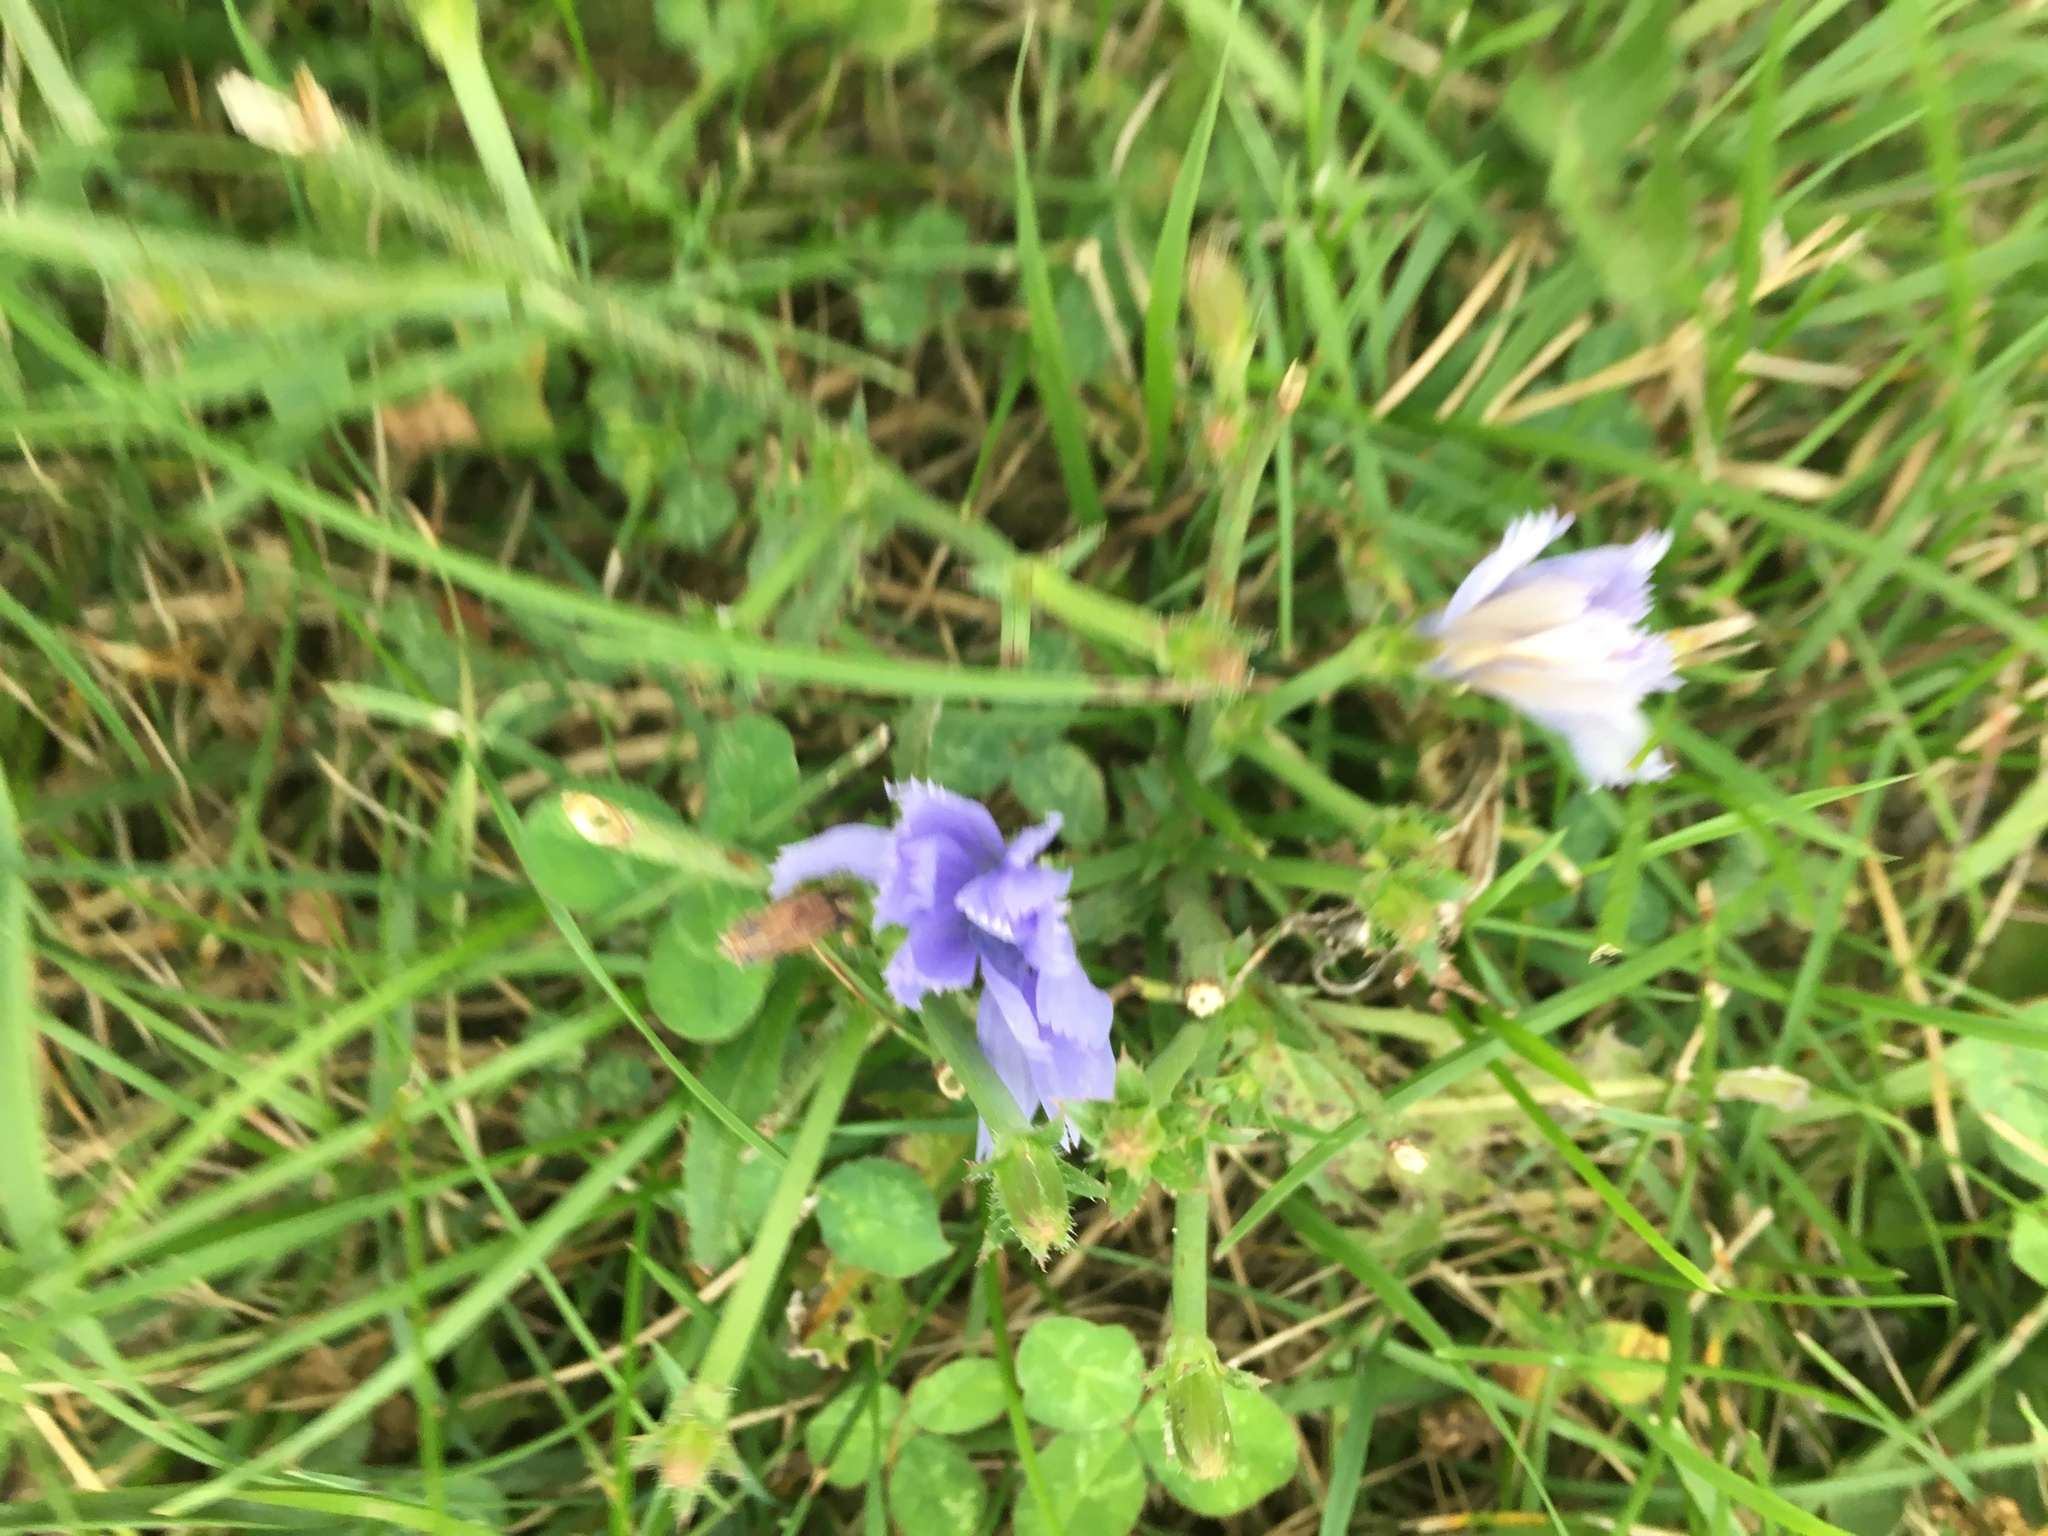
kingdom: Plantae
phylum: Tracheophyta
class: Magnoliopsida
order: Asterales
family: Asteraceae
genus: Cichorium
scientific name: Cichorium intybus
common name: Chicory
